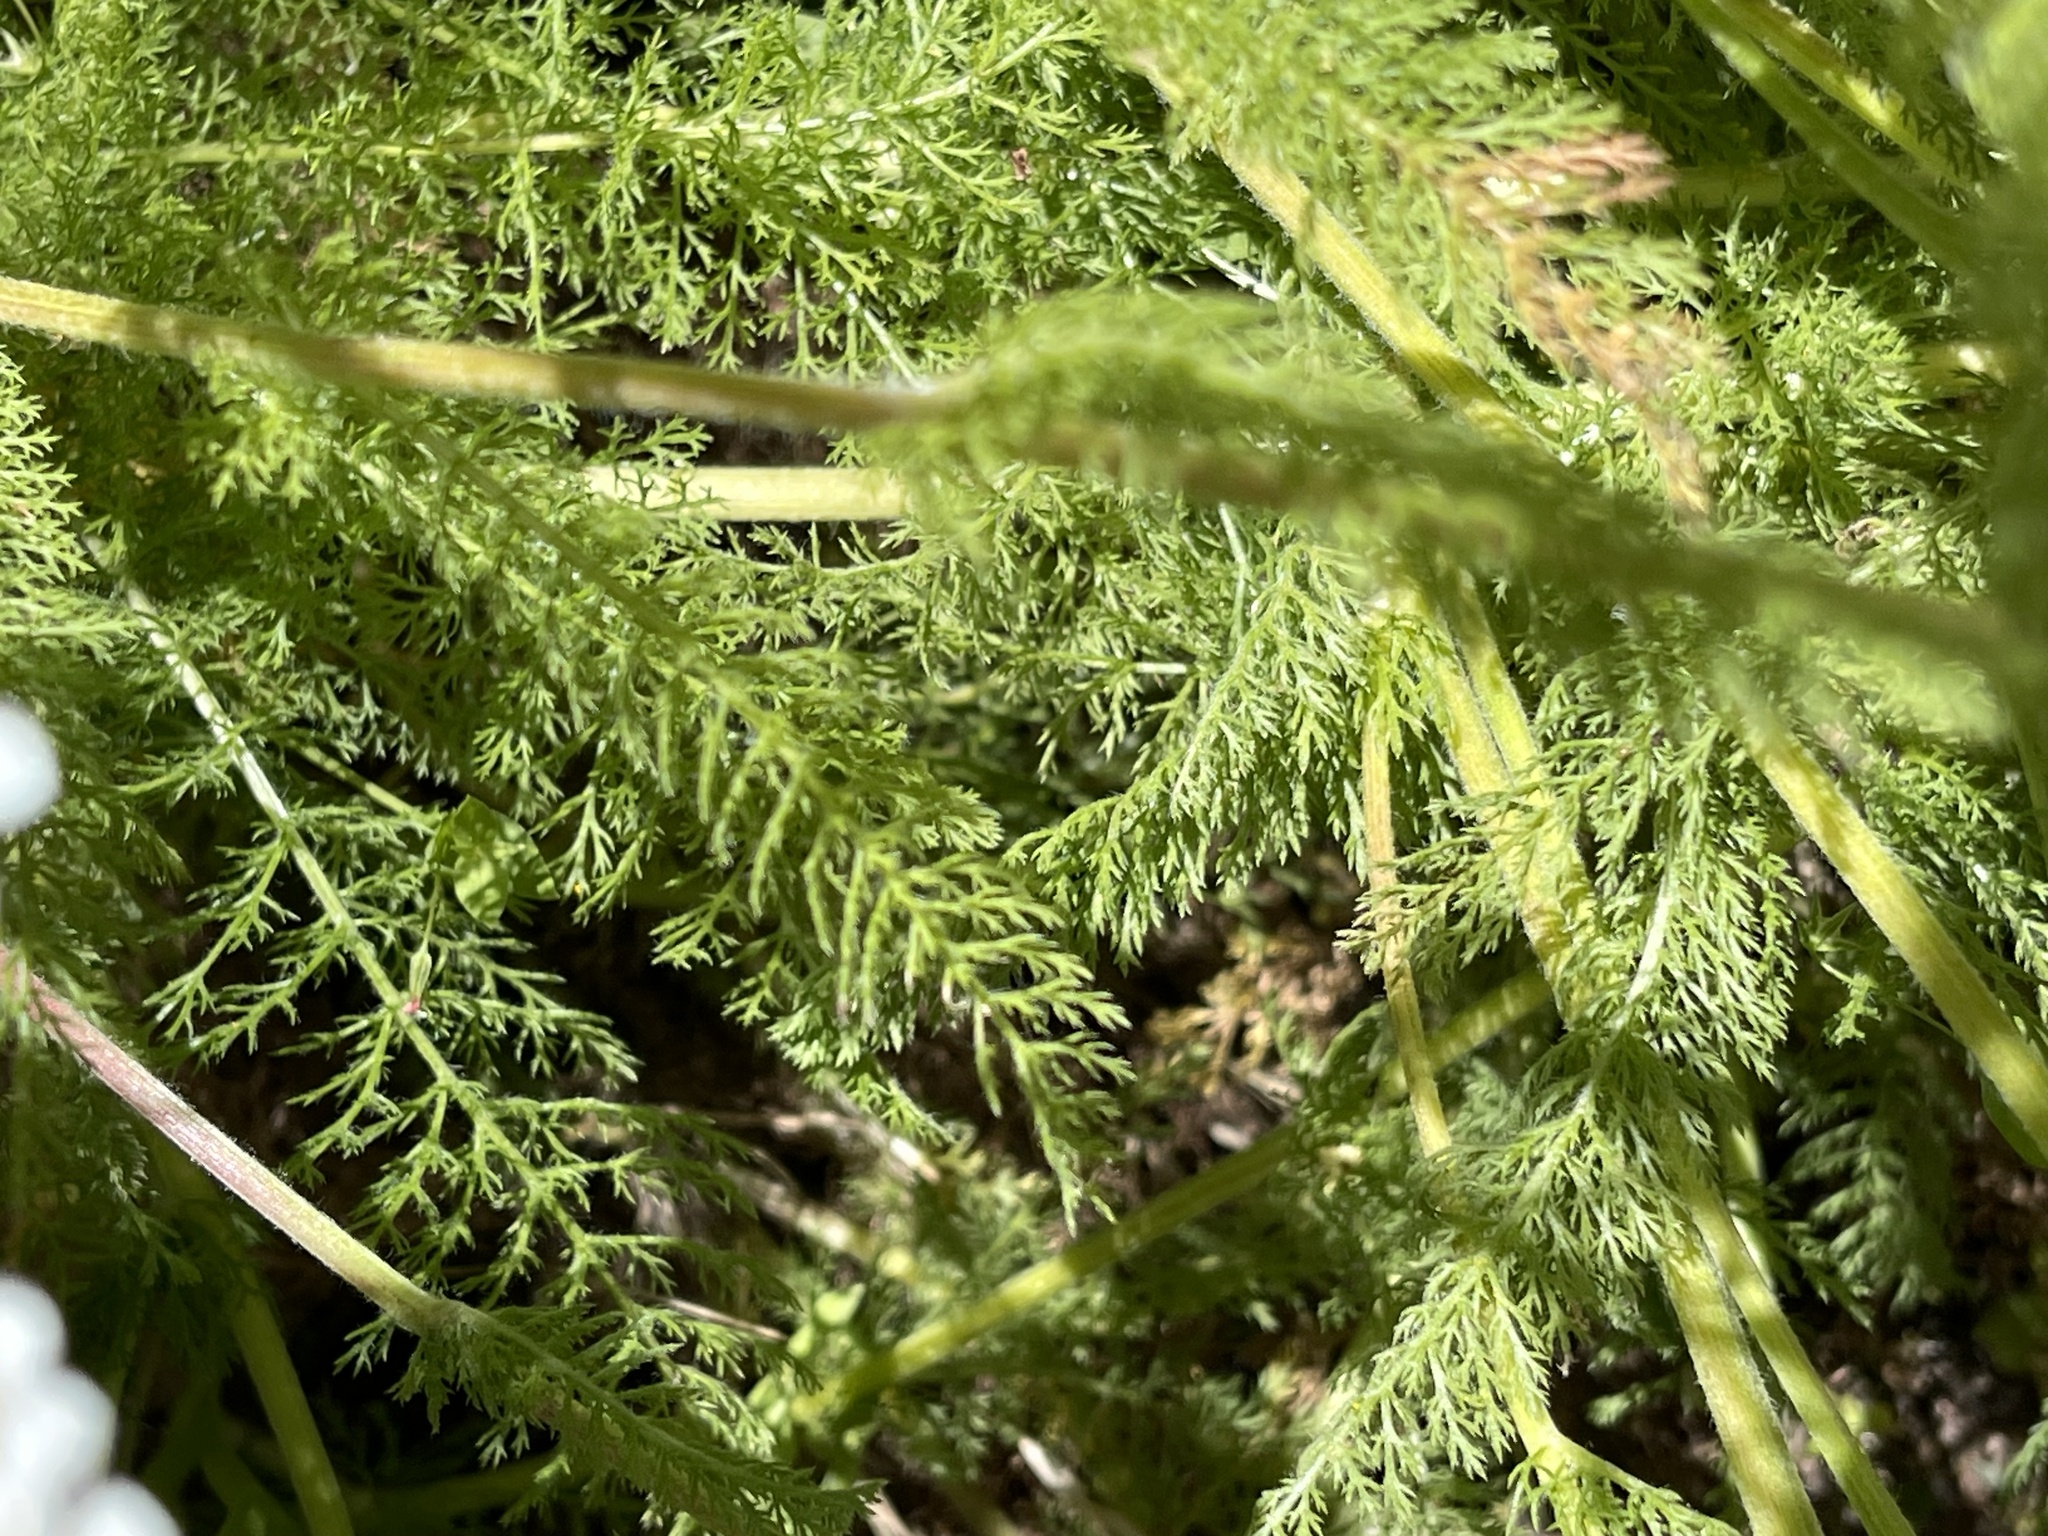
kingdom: Plantae
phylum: Tracheophyta
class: Magnoliopsida
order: Asterales
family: Asteraceae
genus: Achillea
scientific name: Achillea millefolium
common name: Yarrow
